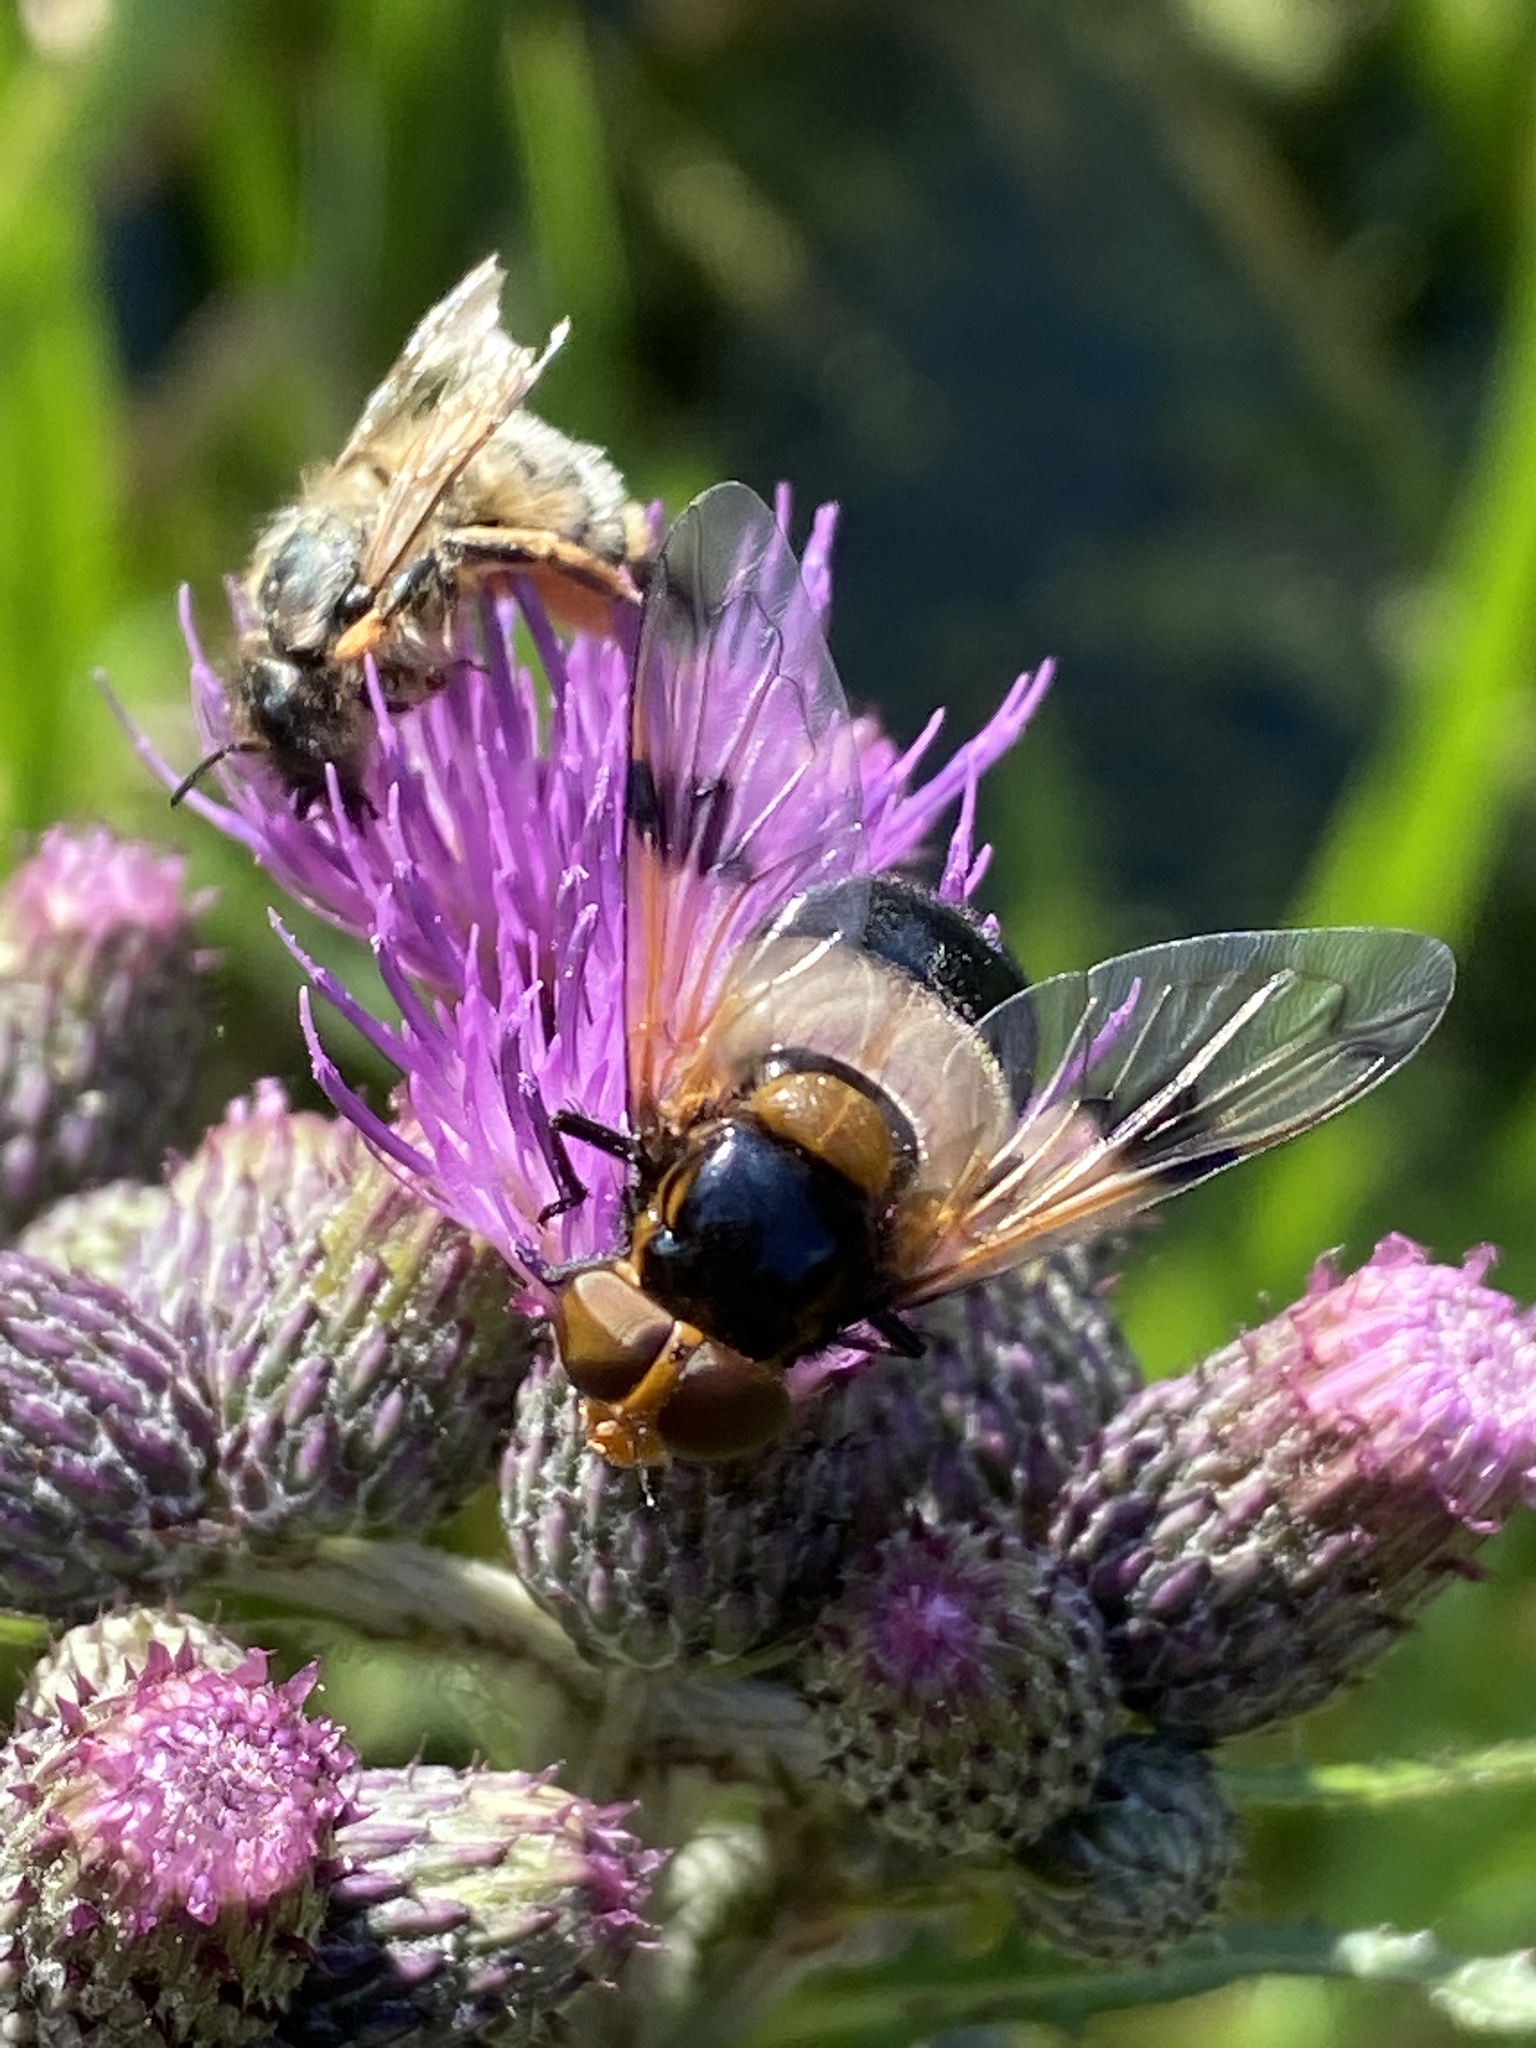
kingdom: Animalia
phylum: Arthropoda
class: Insecta
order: Diptera
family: Syrphidae
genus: Volucella
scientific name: Volucella pellucens
